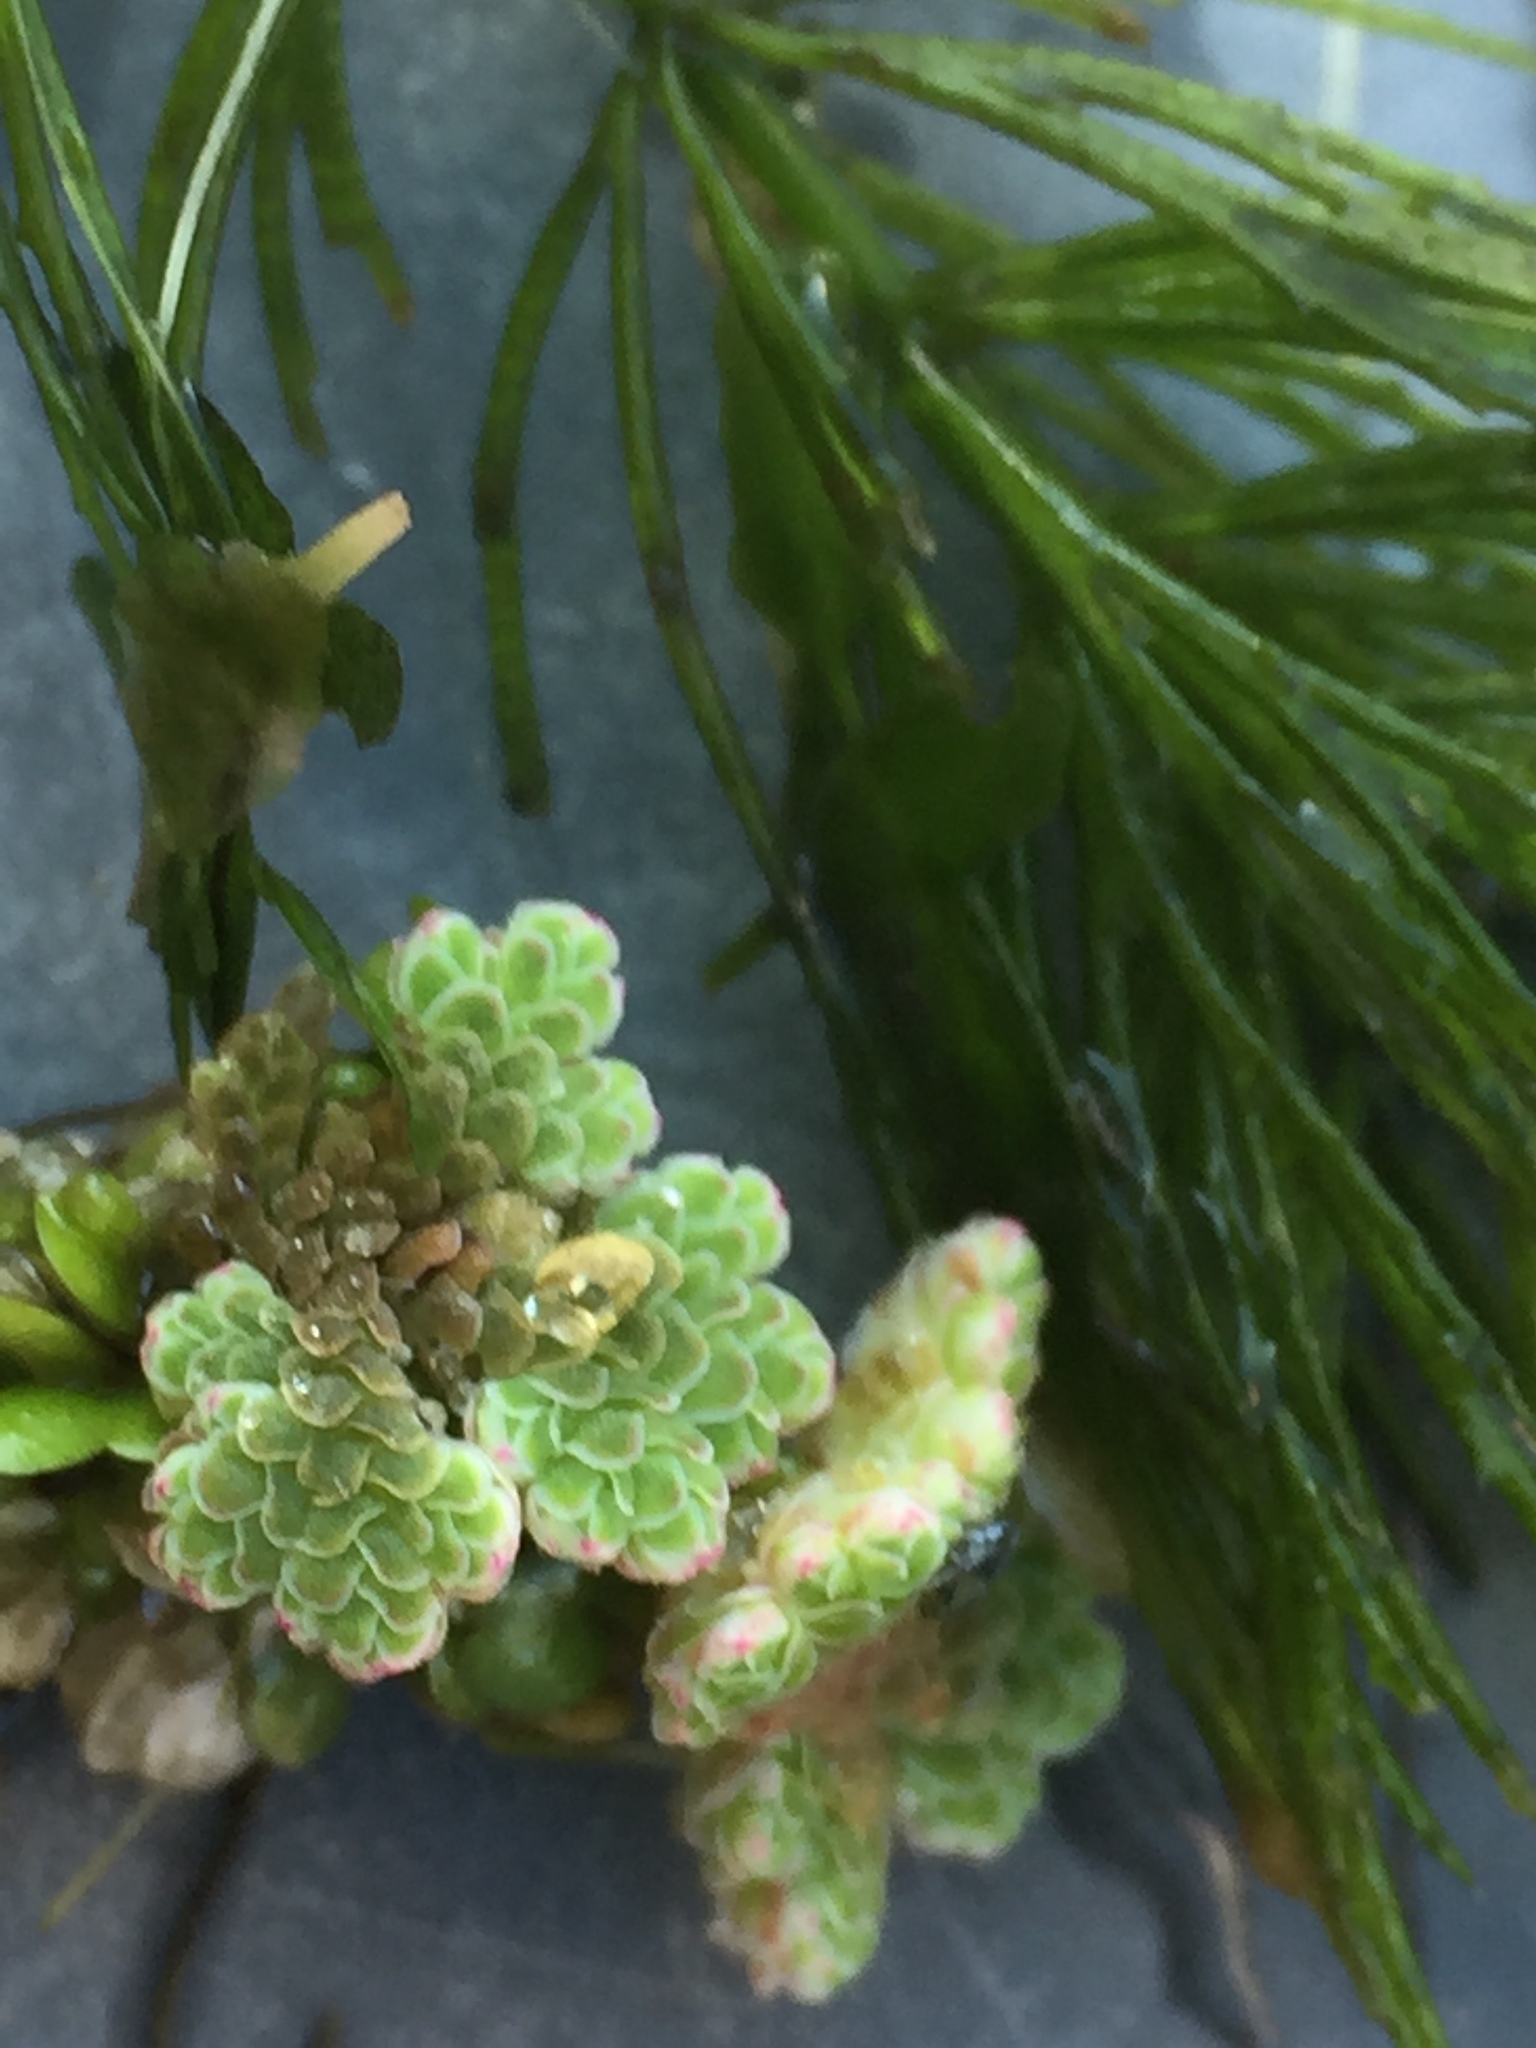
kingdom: Plantae
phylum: Tracheophyta
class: Magnoliopsida
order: Ceratophyllales
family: Ceratophyllaceae
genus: Ceratophyllum
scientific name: Ceratophyllum demersum
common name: Rigid hornwort
